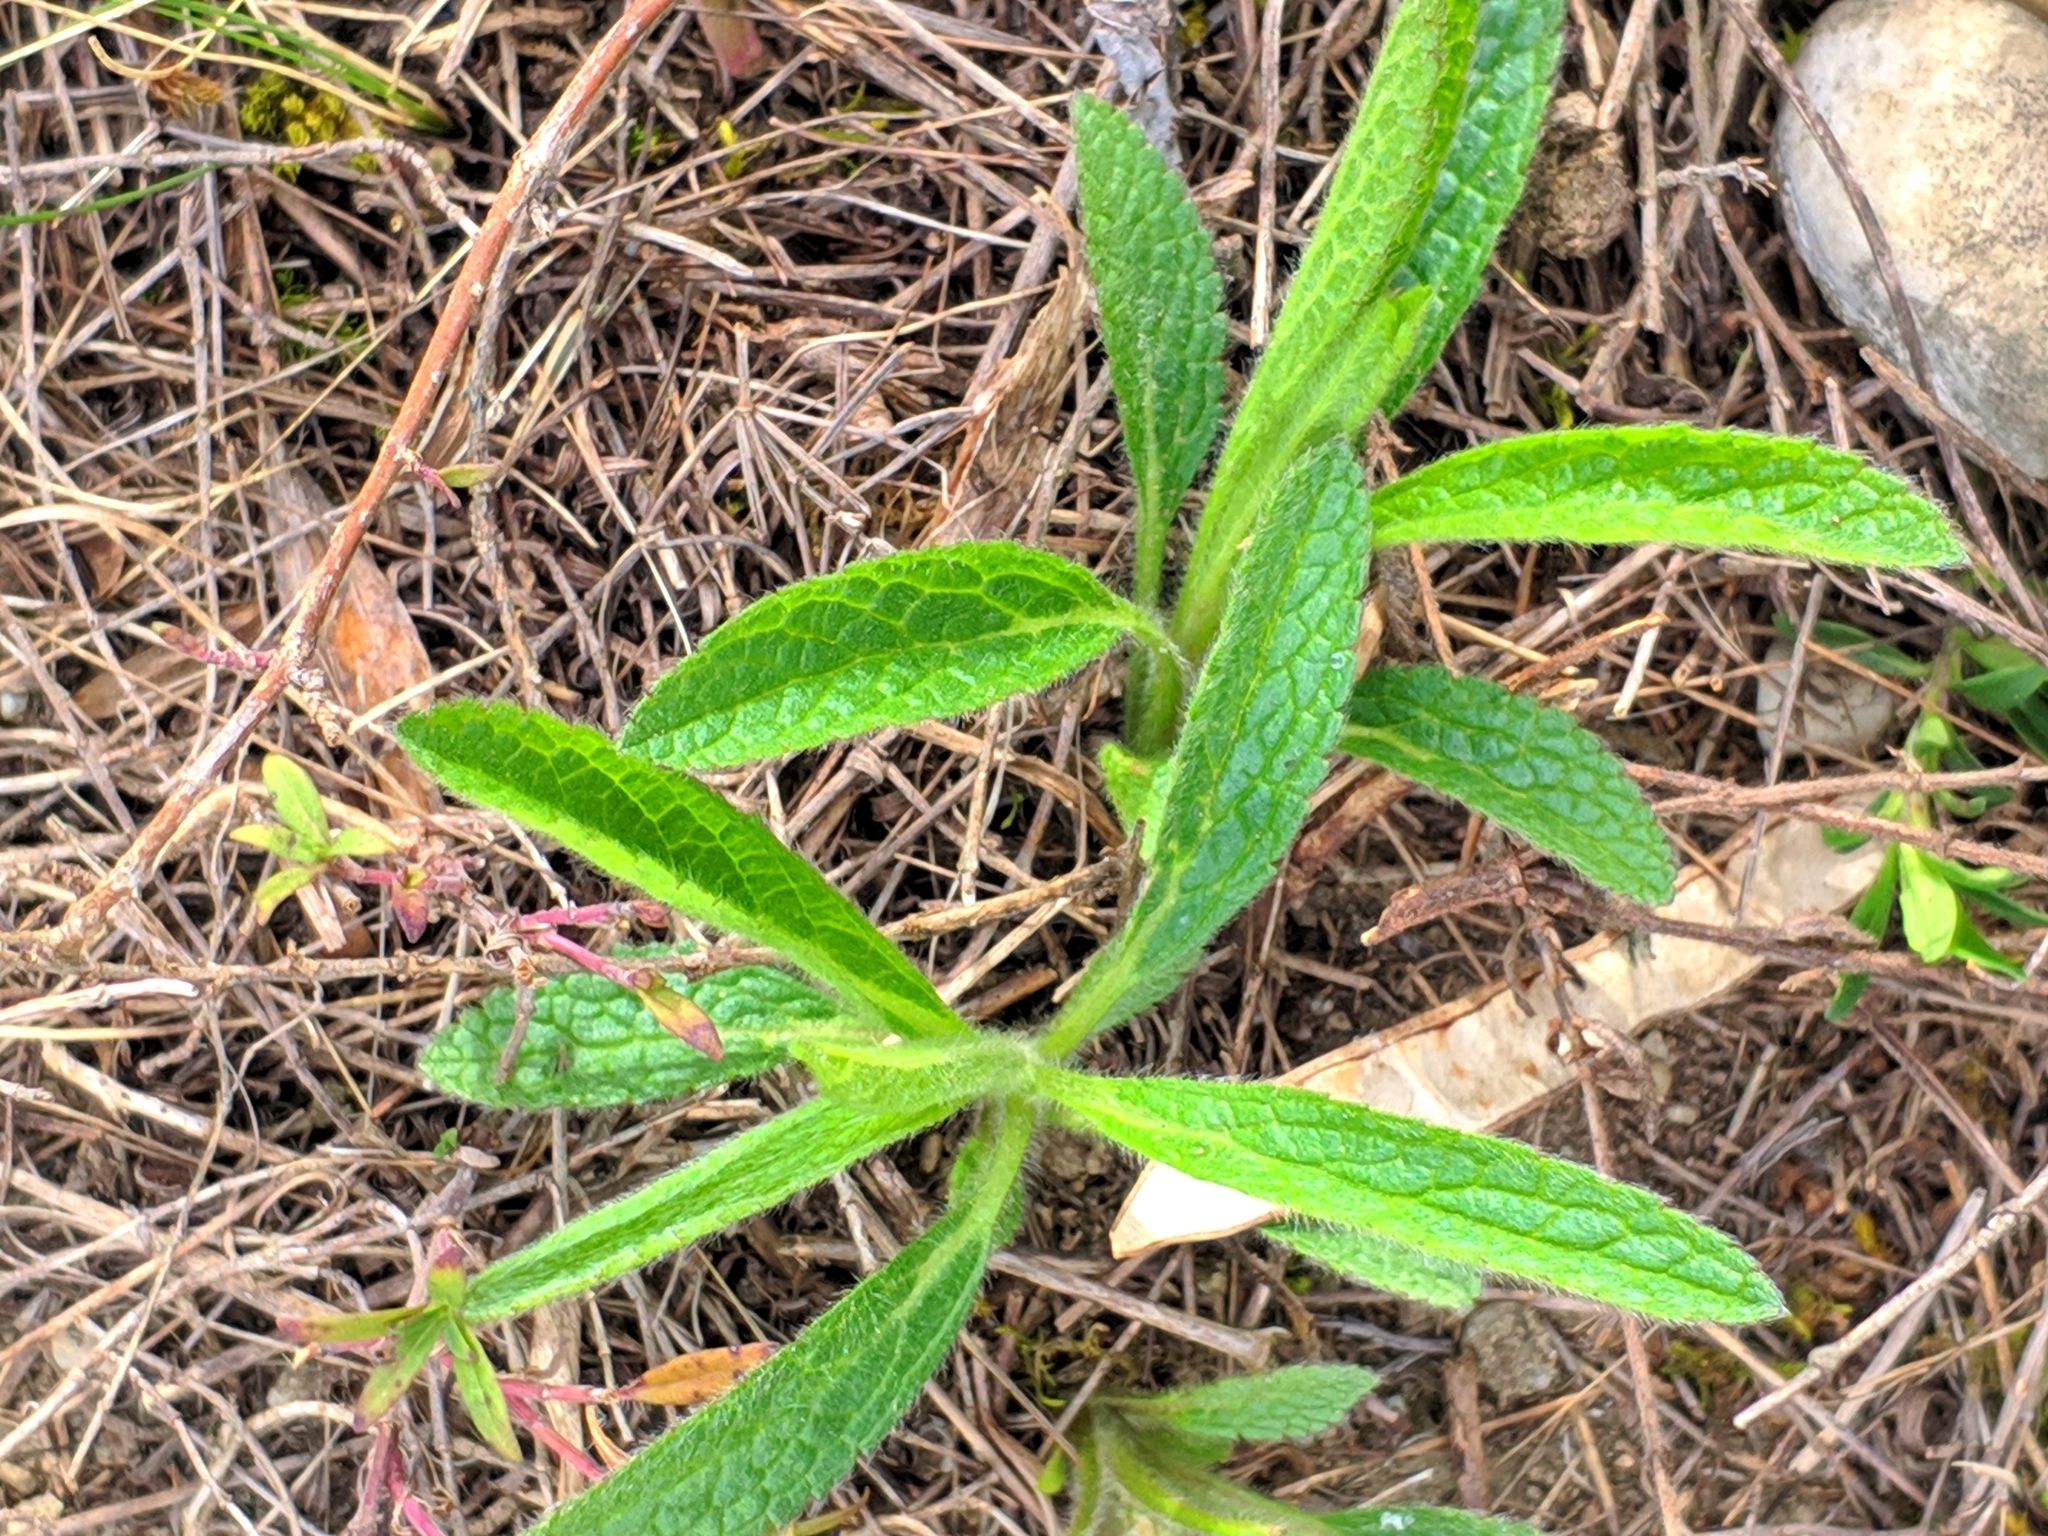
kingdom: Plantae
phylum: Tracheophyta
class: Magnoliopsida
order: Lamiales
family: Lamiaceae
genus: Stachys
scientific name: Stachys recta
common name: Perennial yellow-woundwort
